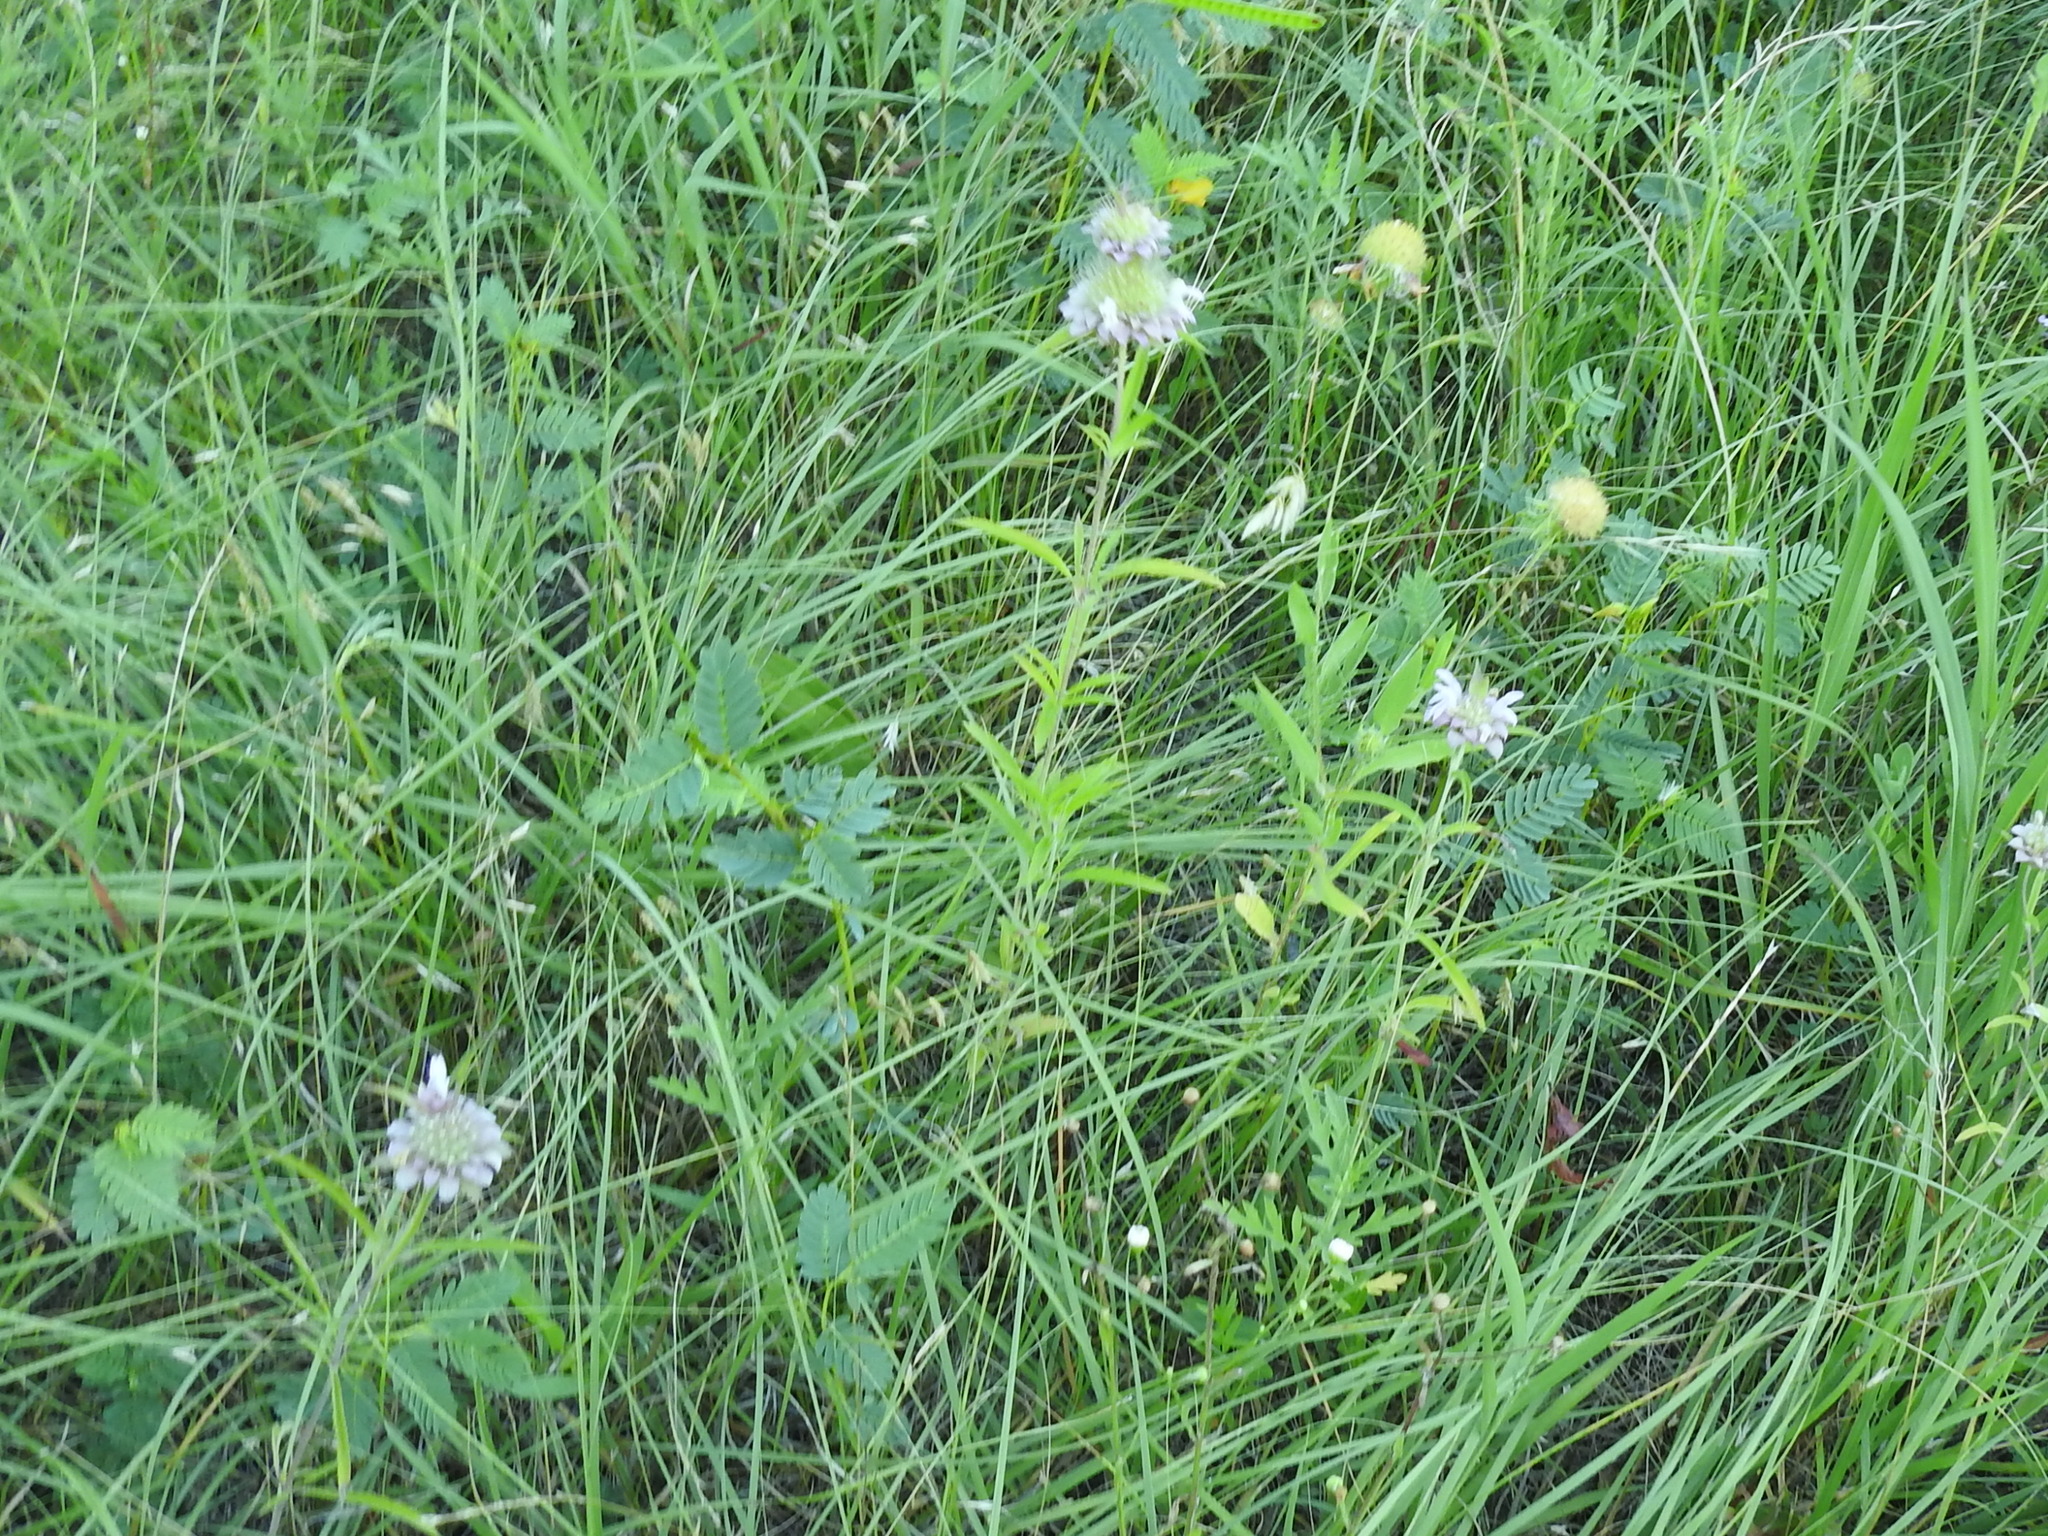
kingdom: Plantae
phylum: Tracheophyta
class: Magnoliopsida
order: Lamiales
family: Lamiaceae
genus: Monarda
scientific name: Monarda citriodora
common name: Lemon beebalm
